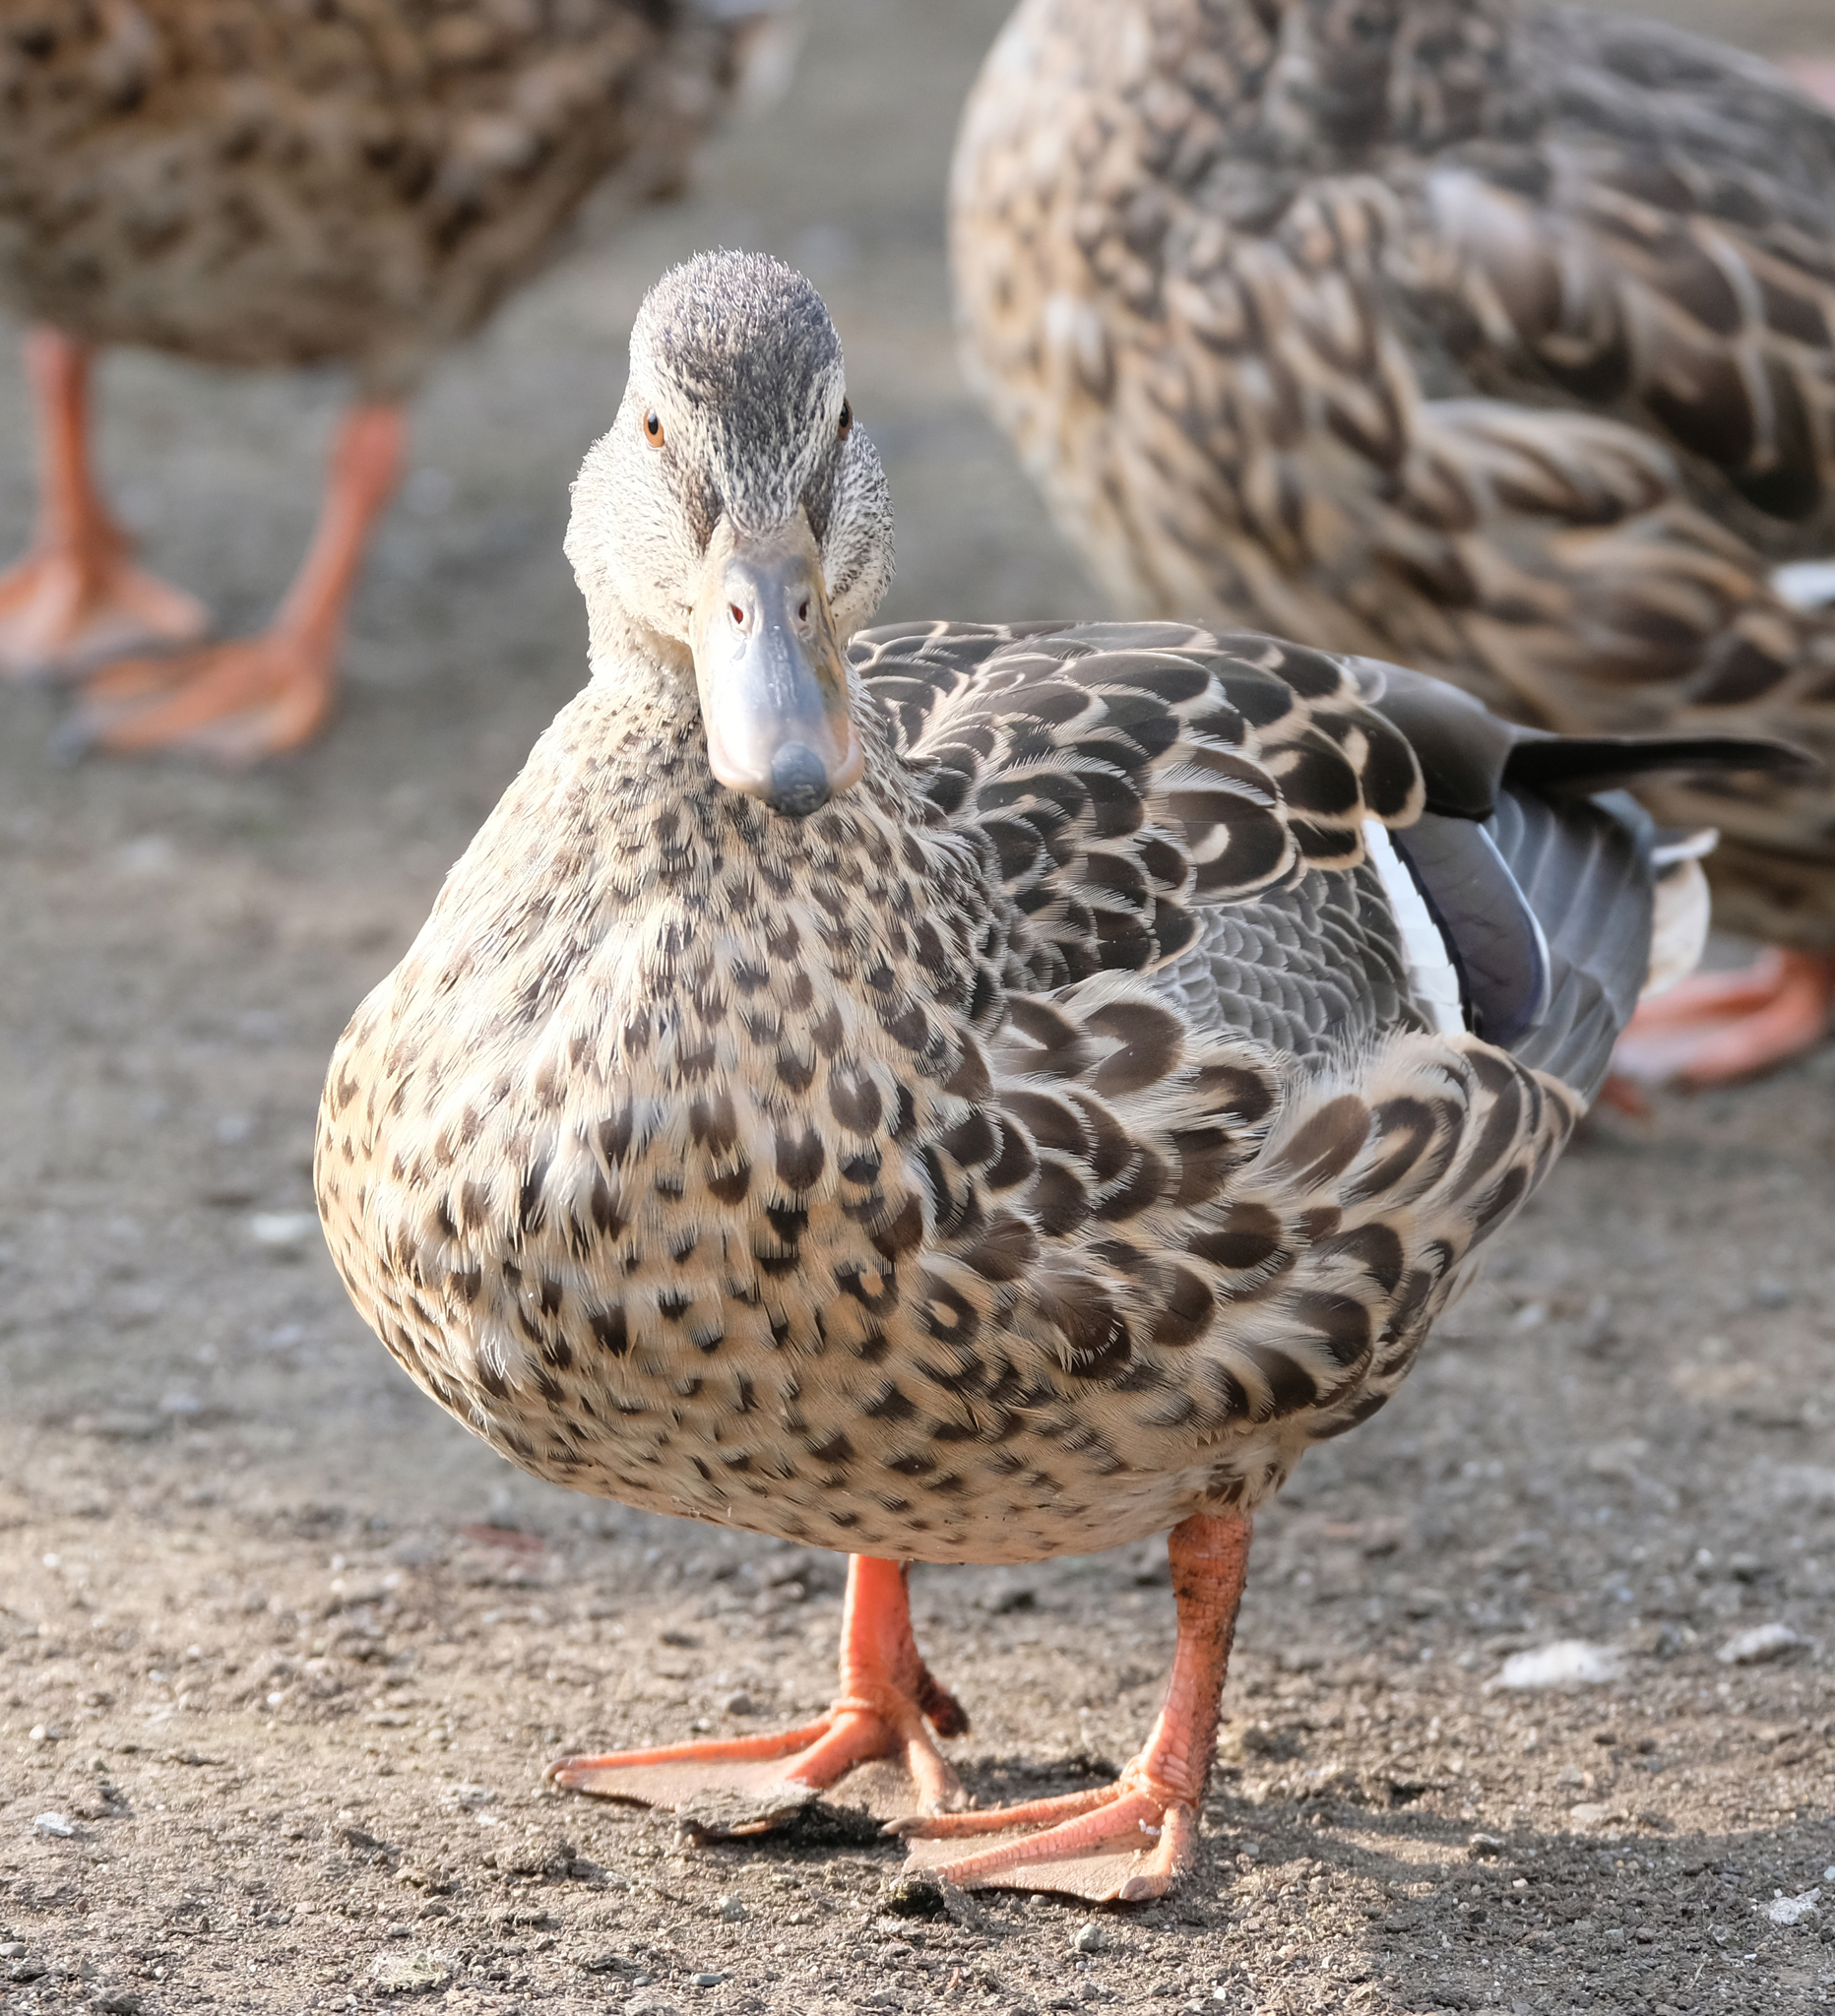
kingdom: Animalia
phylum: Chordata
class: Aves
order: Anseriformes
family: Anatidae
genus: Anas
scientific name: Anas platyrhynchos
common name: Mallard
